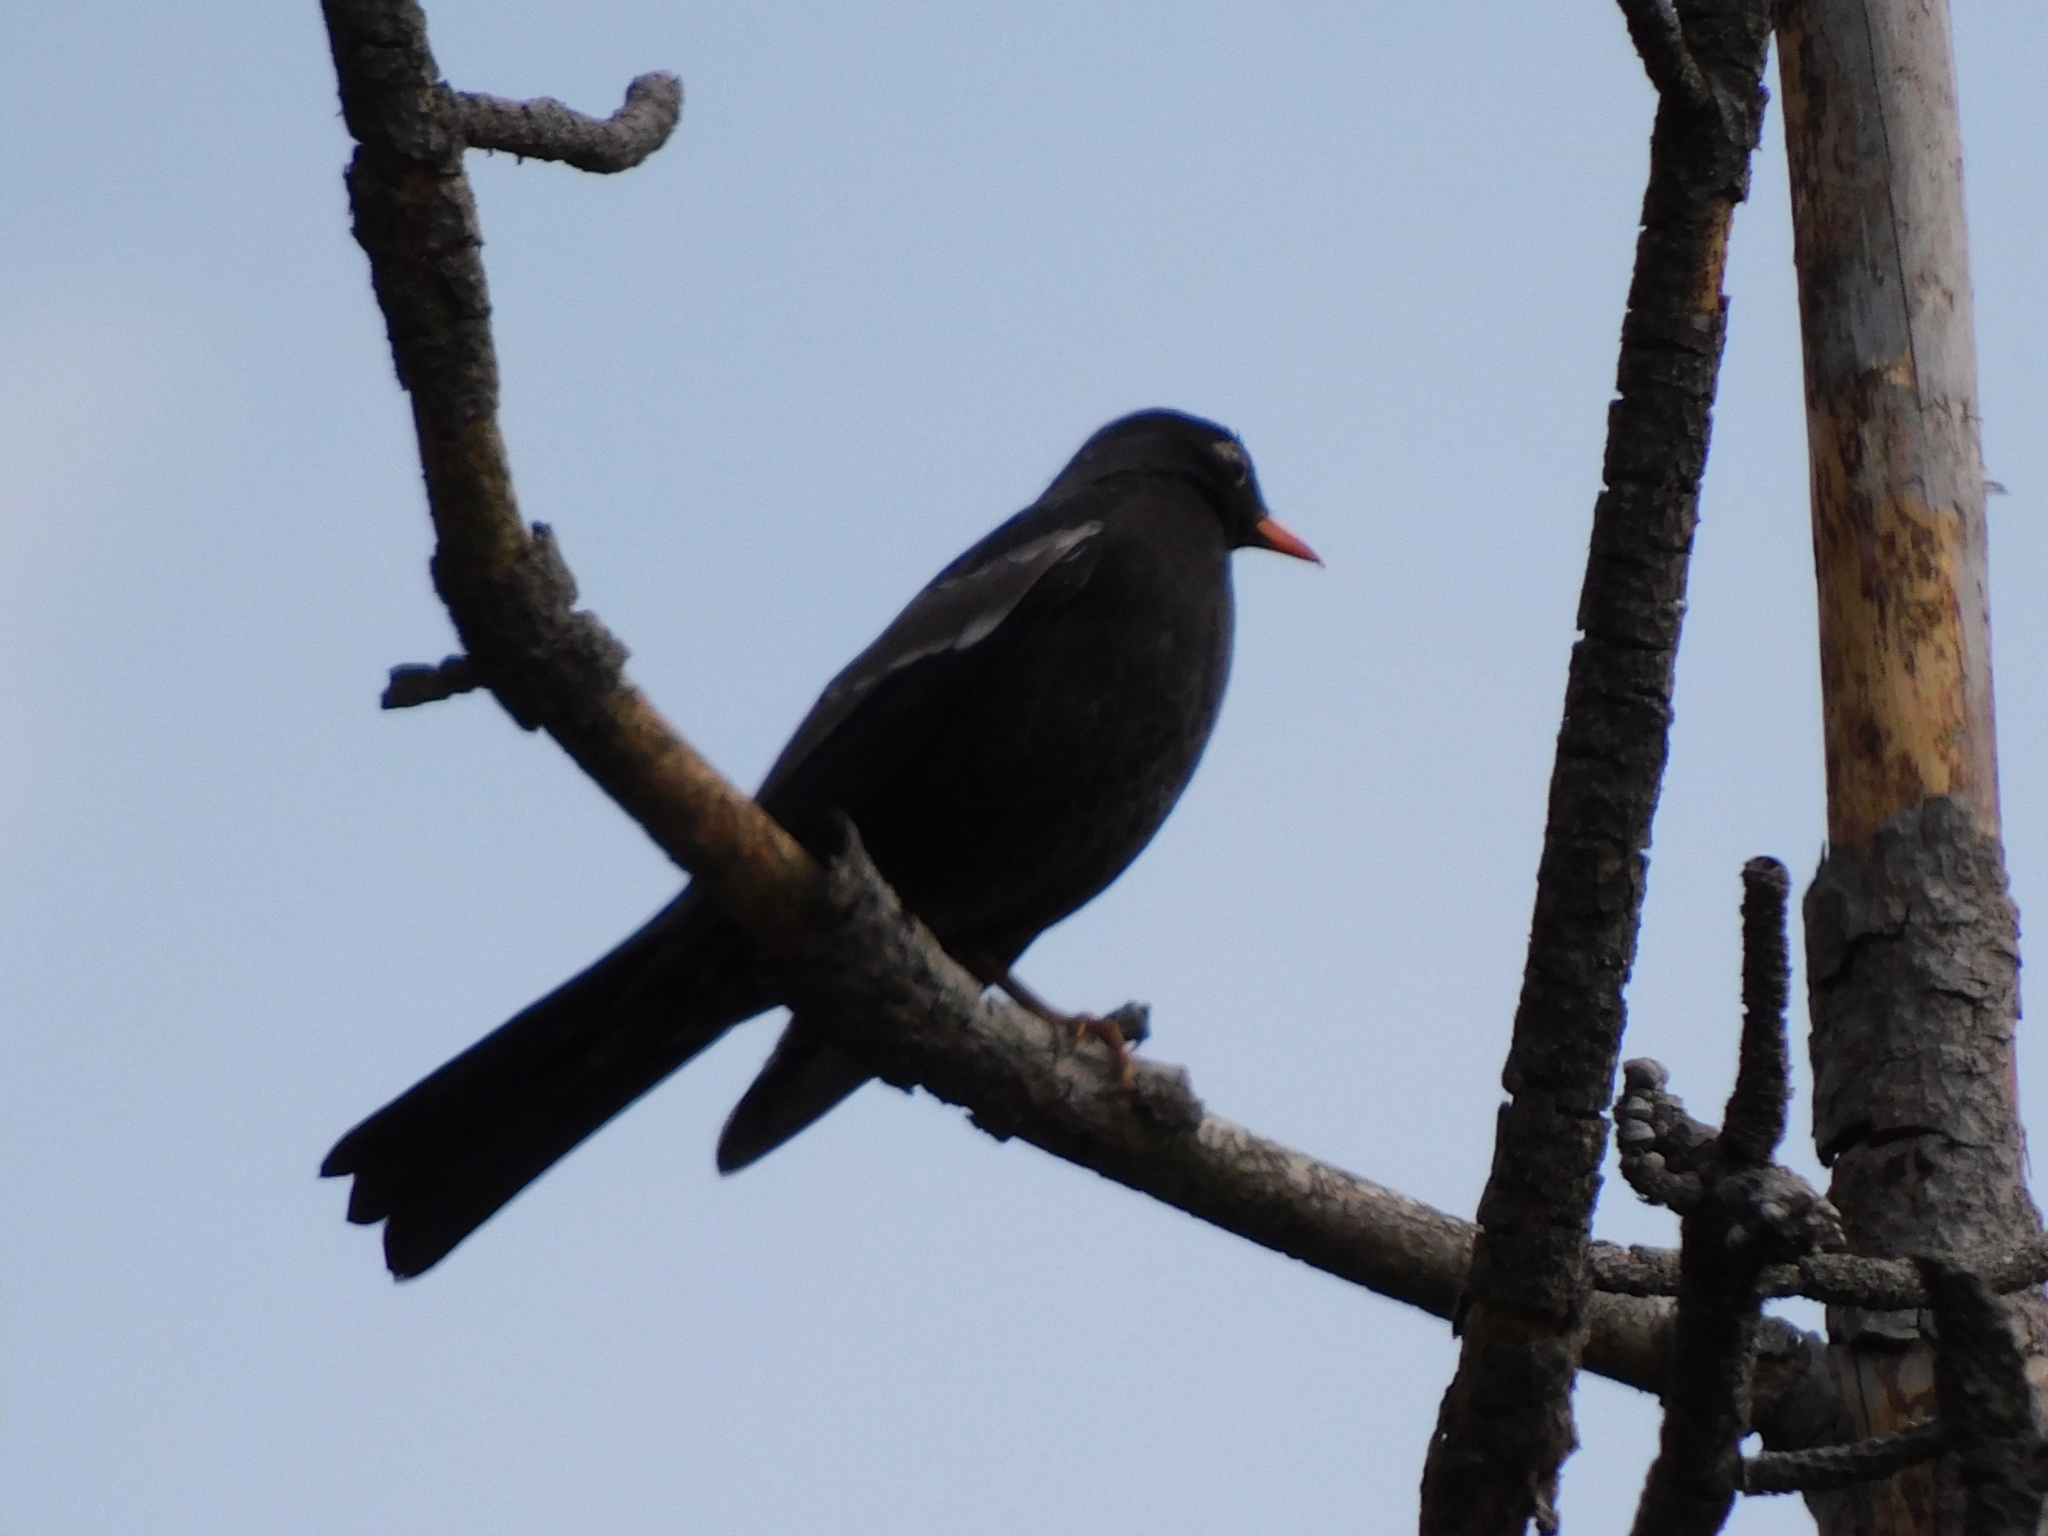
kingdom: Animalia
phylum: Chordata
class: Aves
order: Passeriformes
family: Turdidae
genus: Turdus
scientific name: Turdus boulboul
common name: Grey-winged blackbird
